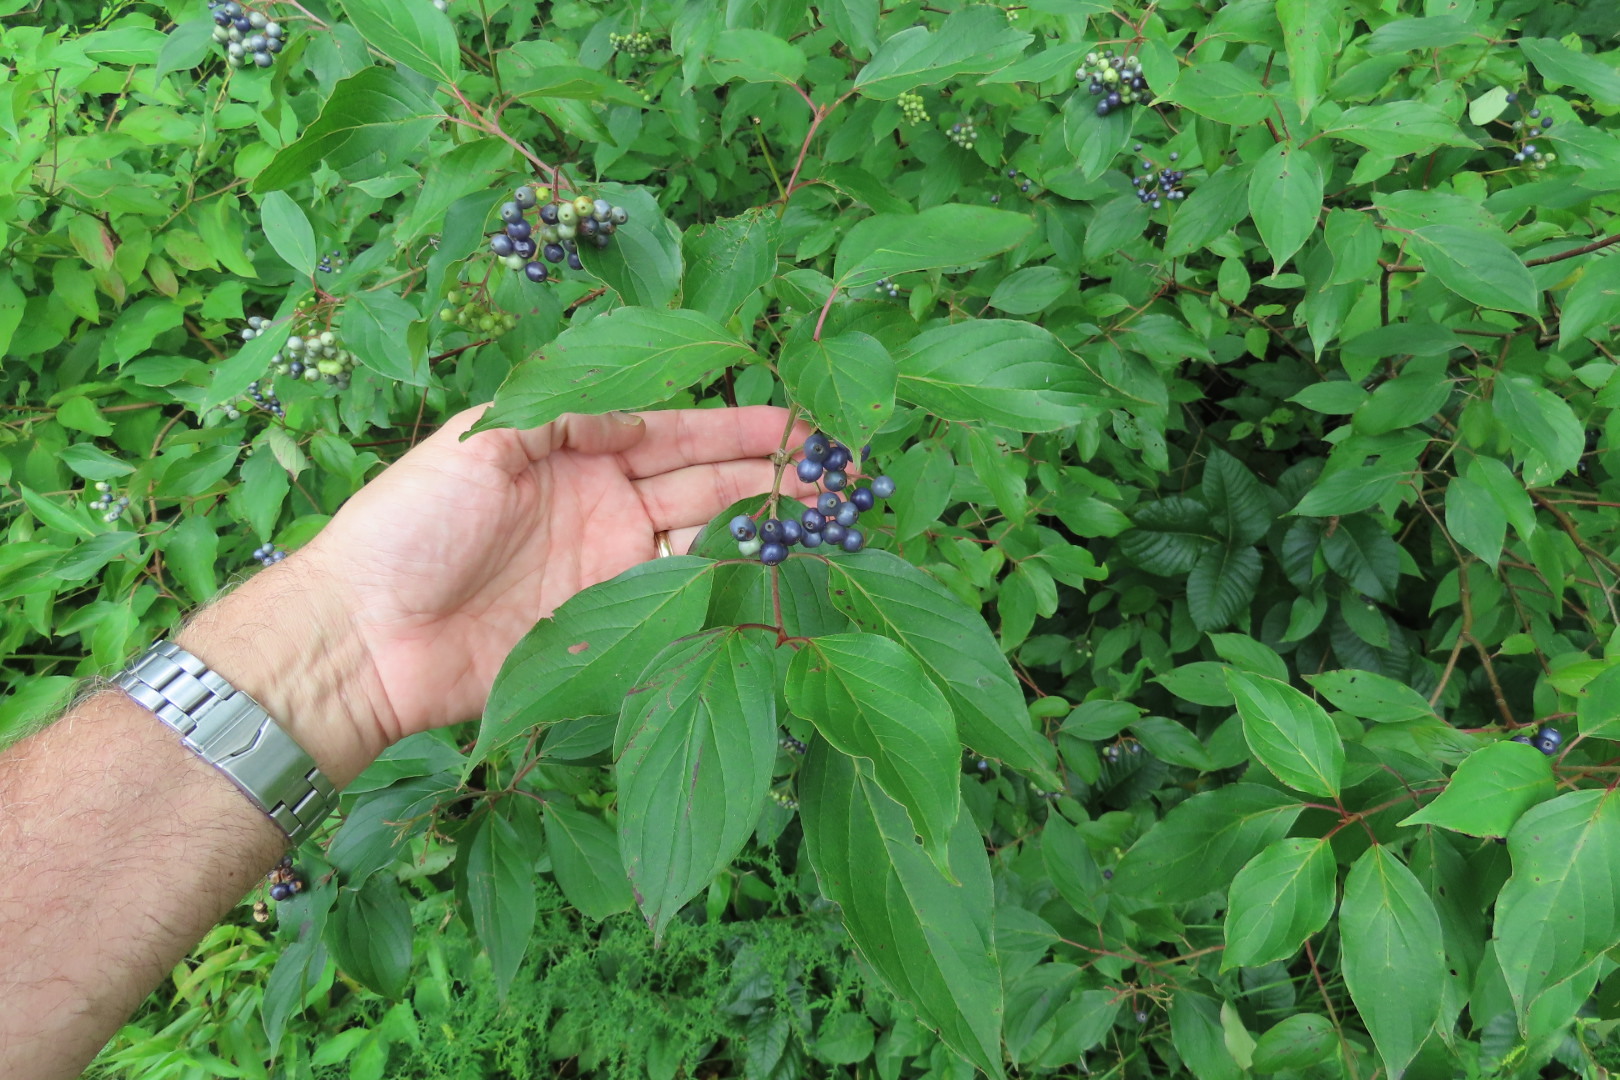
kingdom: Plantae
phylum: Tracheophyta
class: Magnoliopsida
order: Cornales
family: Cornaceae
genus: Cornus
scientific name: Cornus amomum
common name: Silky dogwood
